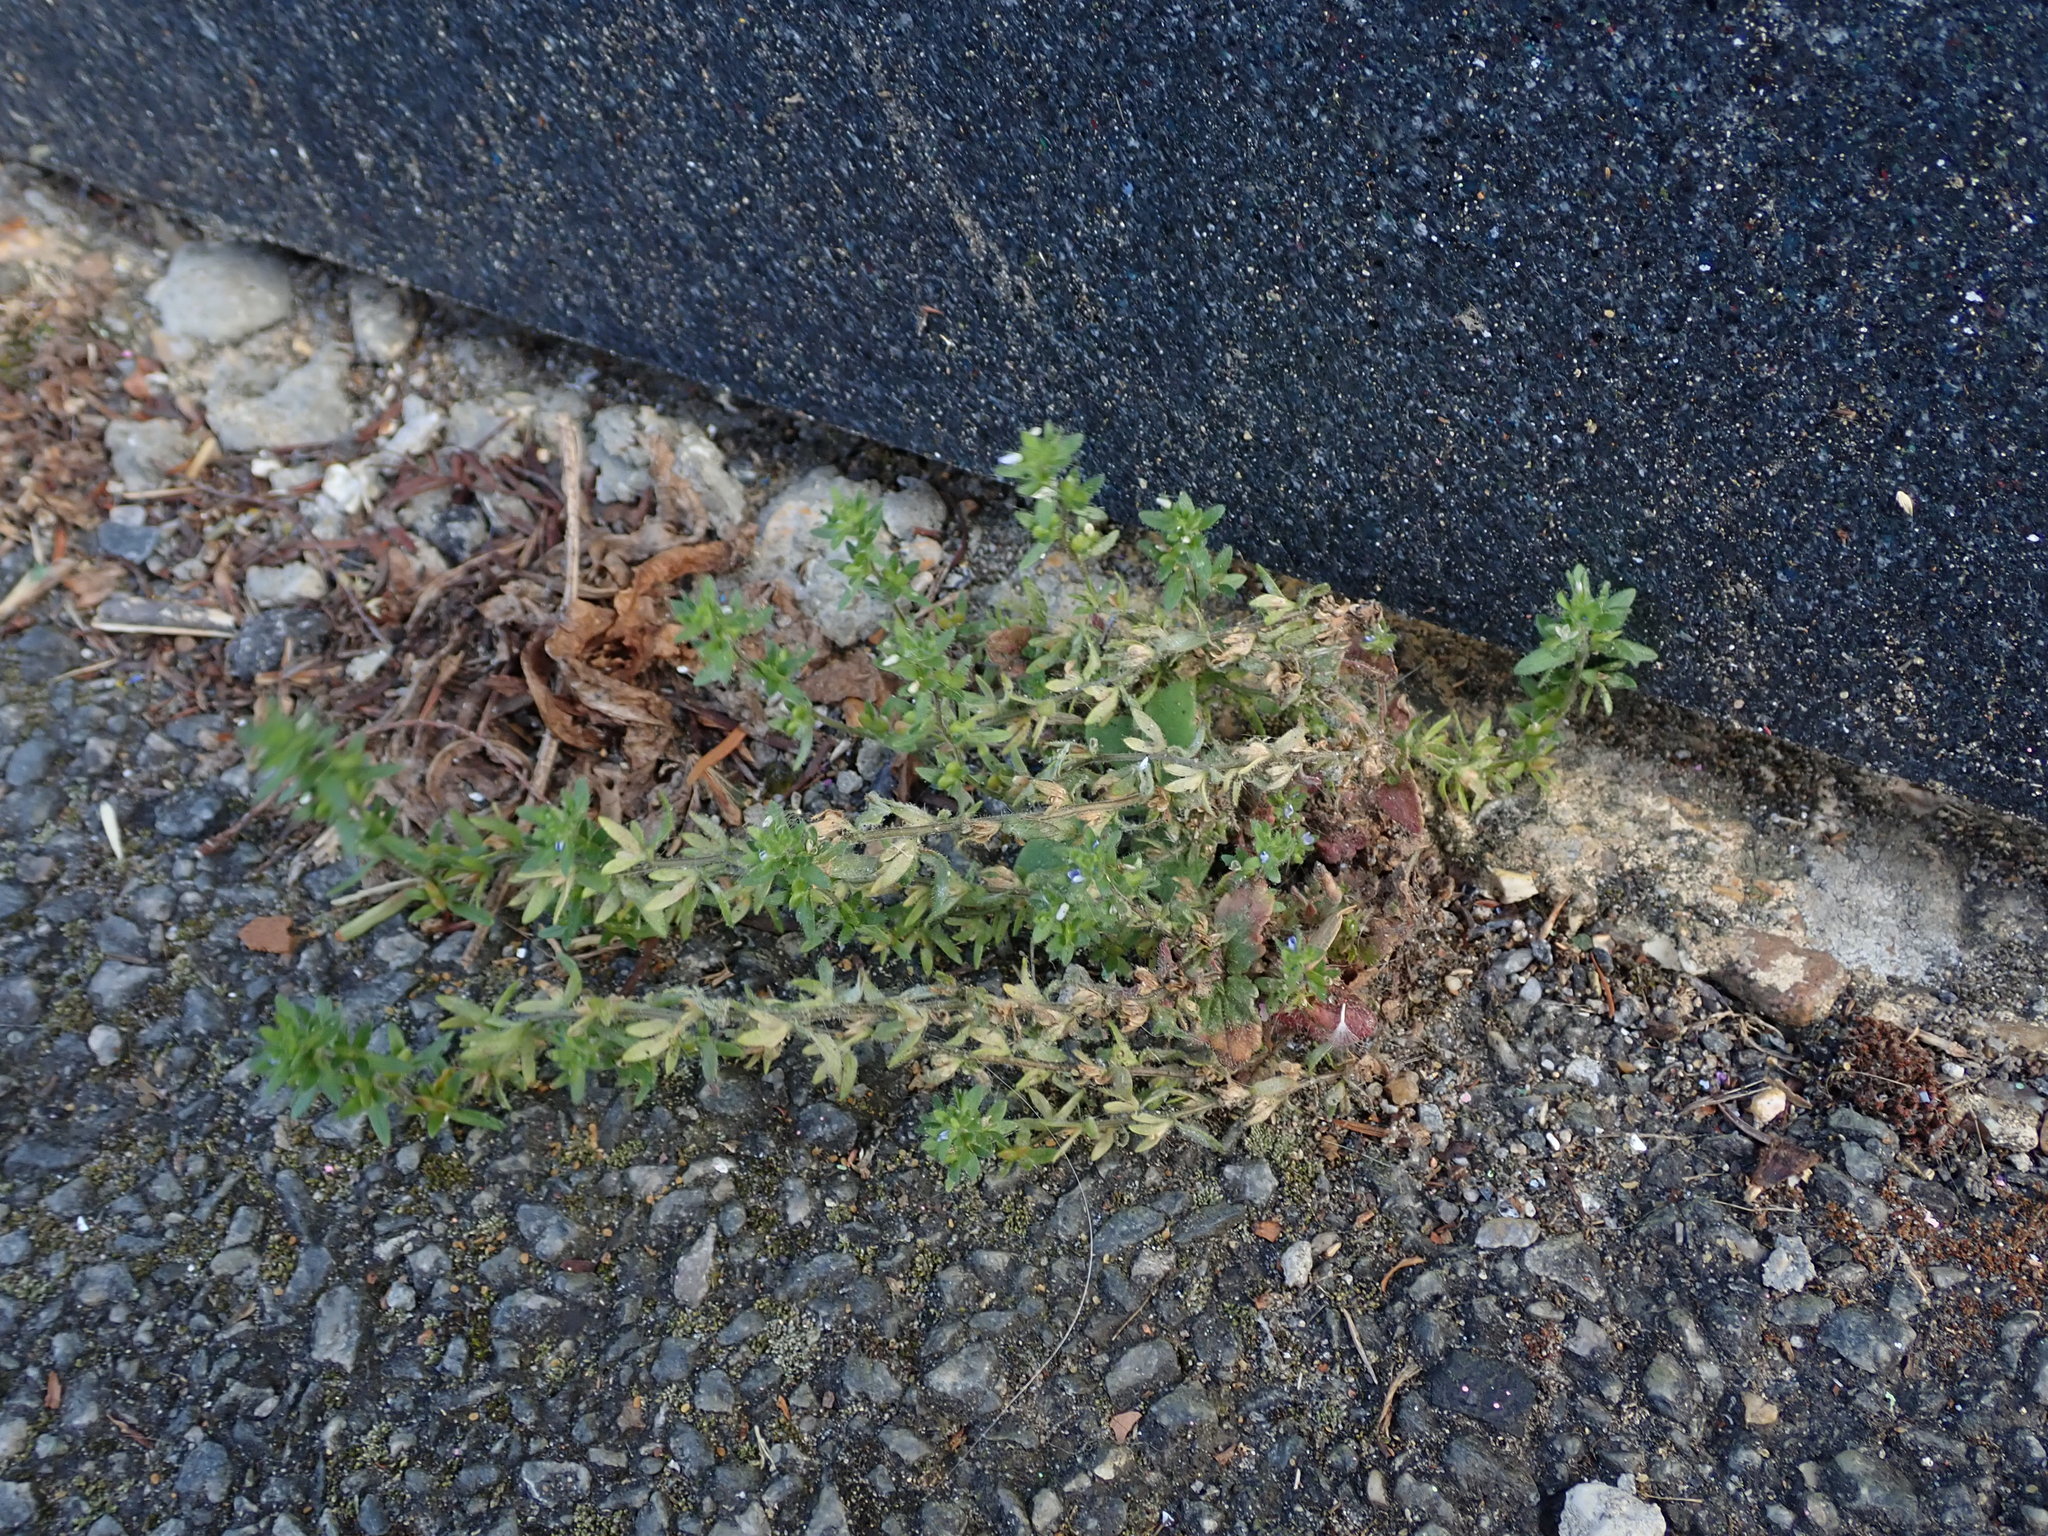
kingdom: Plantae
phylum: Tracheophyta
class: Magnoliopsida
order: Lamiales
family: Plantaginaceae
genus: Veronica
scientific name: Veronica arvensis
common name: Corn speedwell
